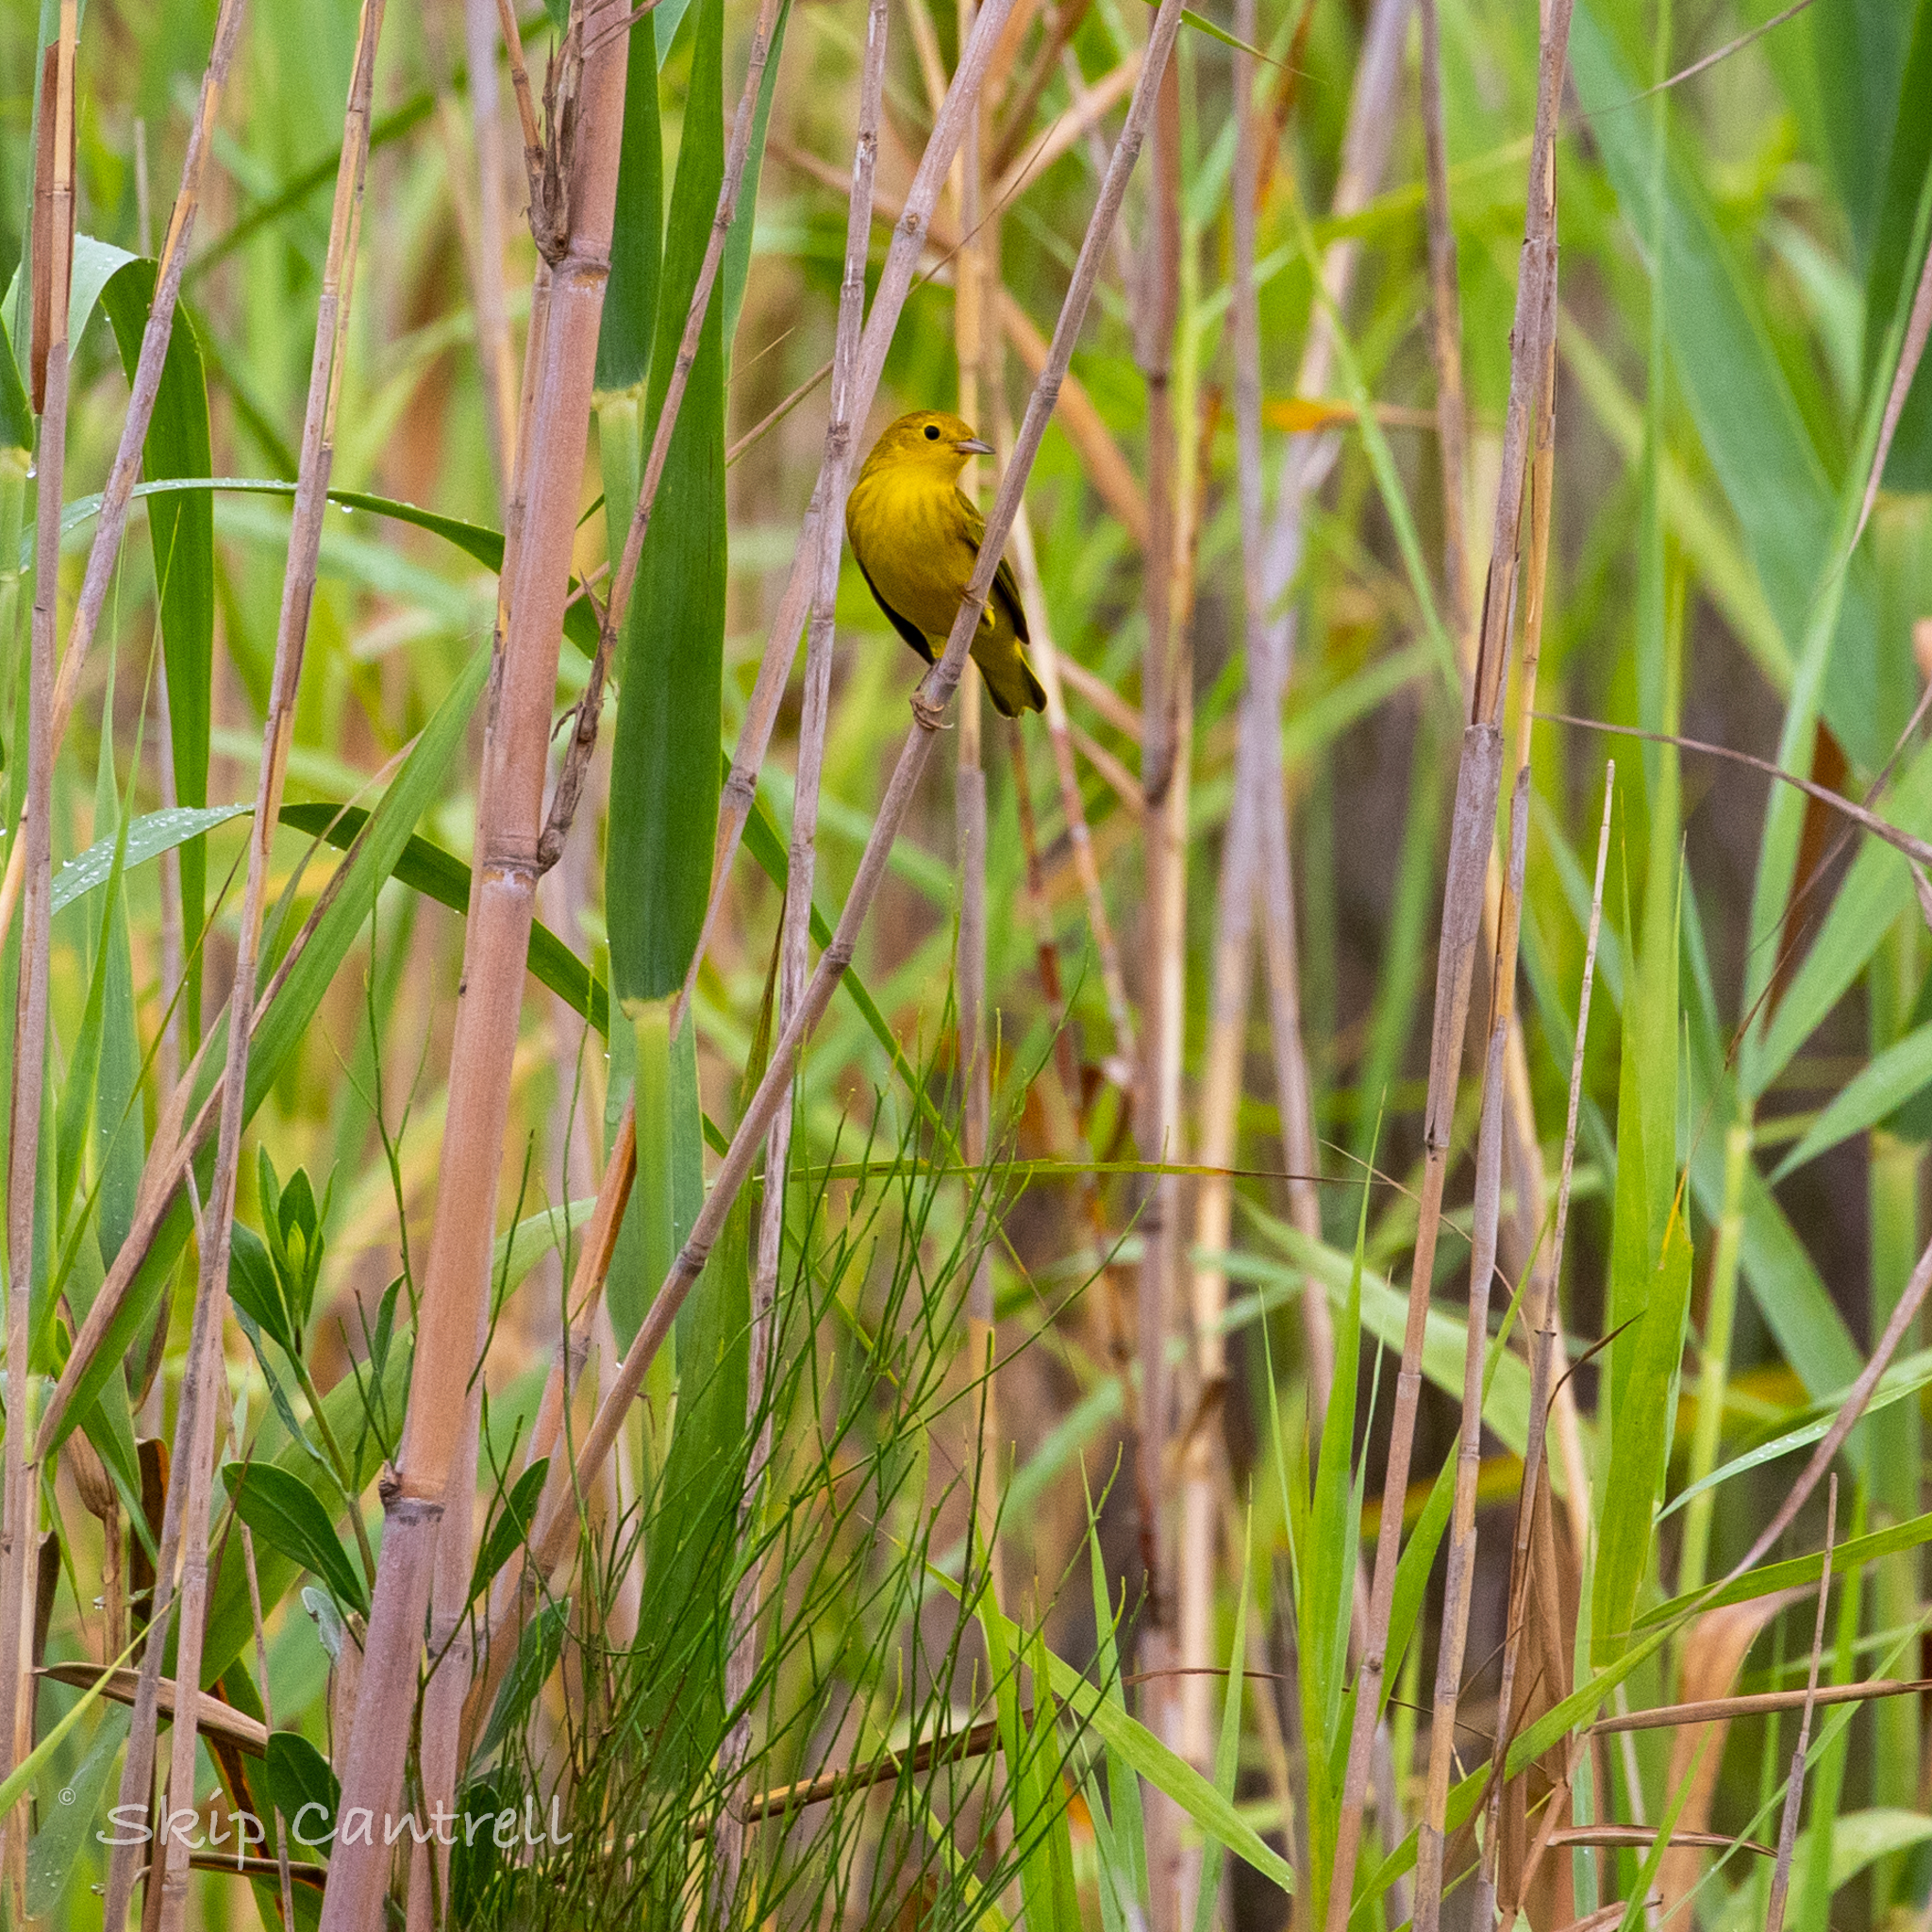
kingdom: Animalia
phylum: Chordata
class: Aves
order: Passeriformes
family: Parulidae
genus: Setophaga
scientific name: Setophaga petechia
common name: Yellow warbler
